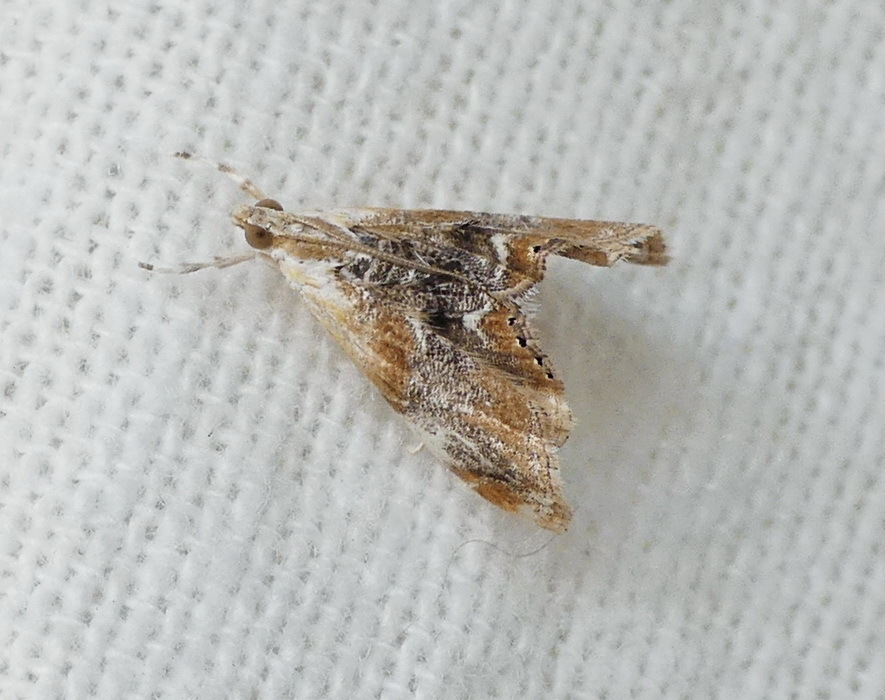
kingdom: Animalia
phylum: Arthropoda
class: Insecta
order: Lepidoptera
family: Crambidae
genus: Dicymolomia
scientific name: Dicymolomia julianalis
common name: Julia's dicymolomia moth
